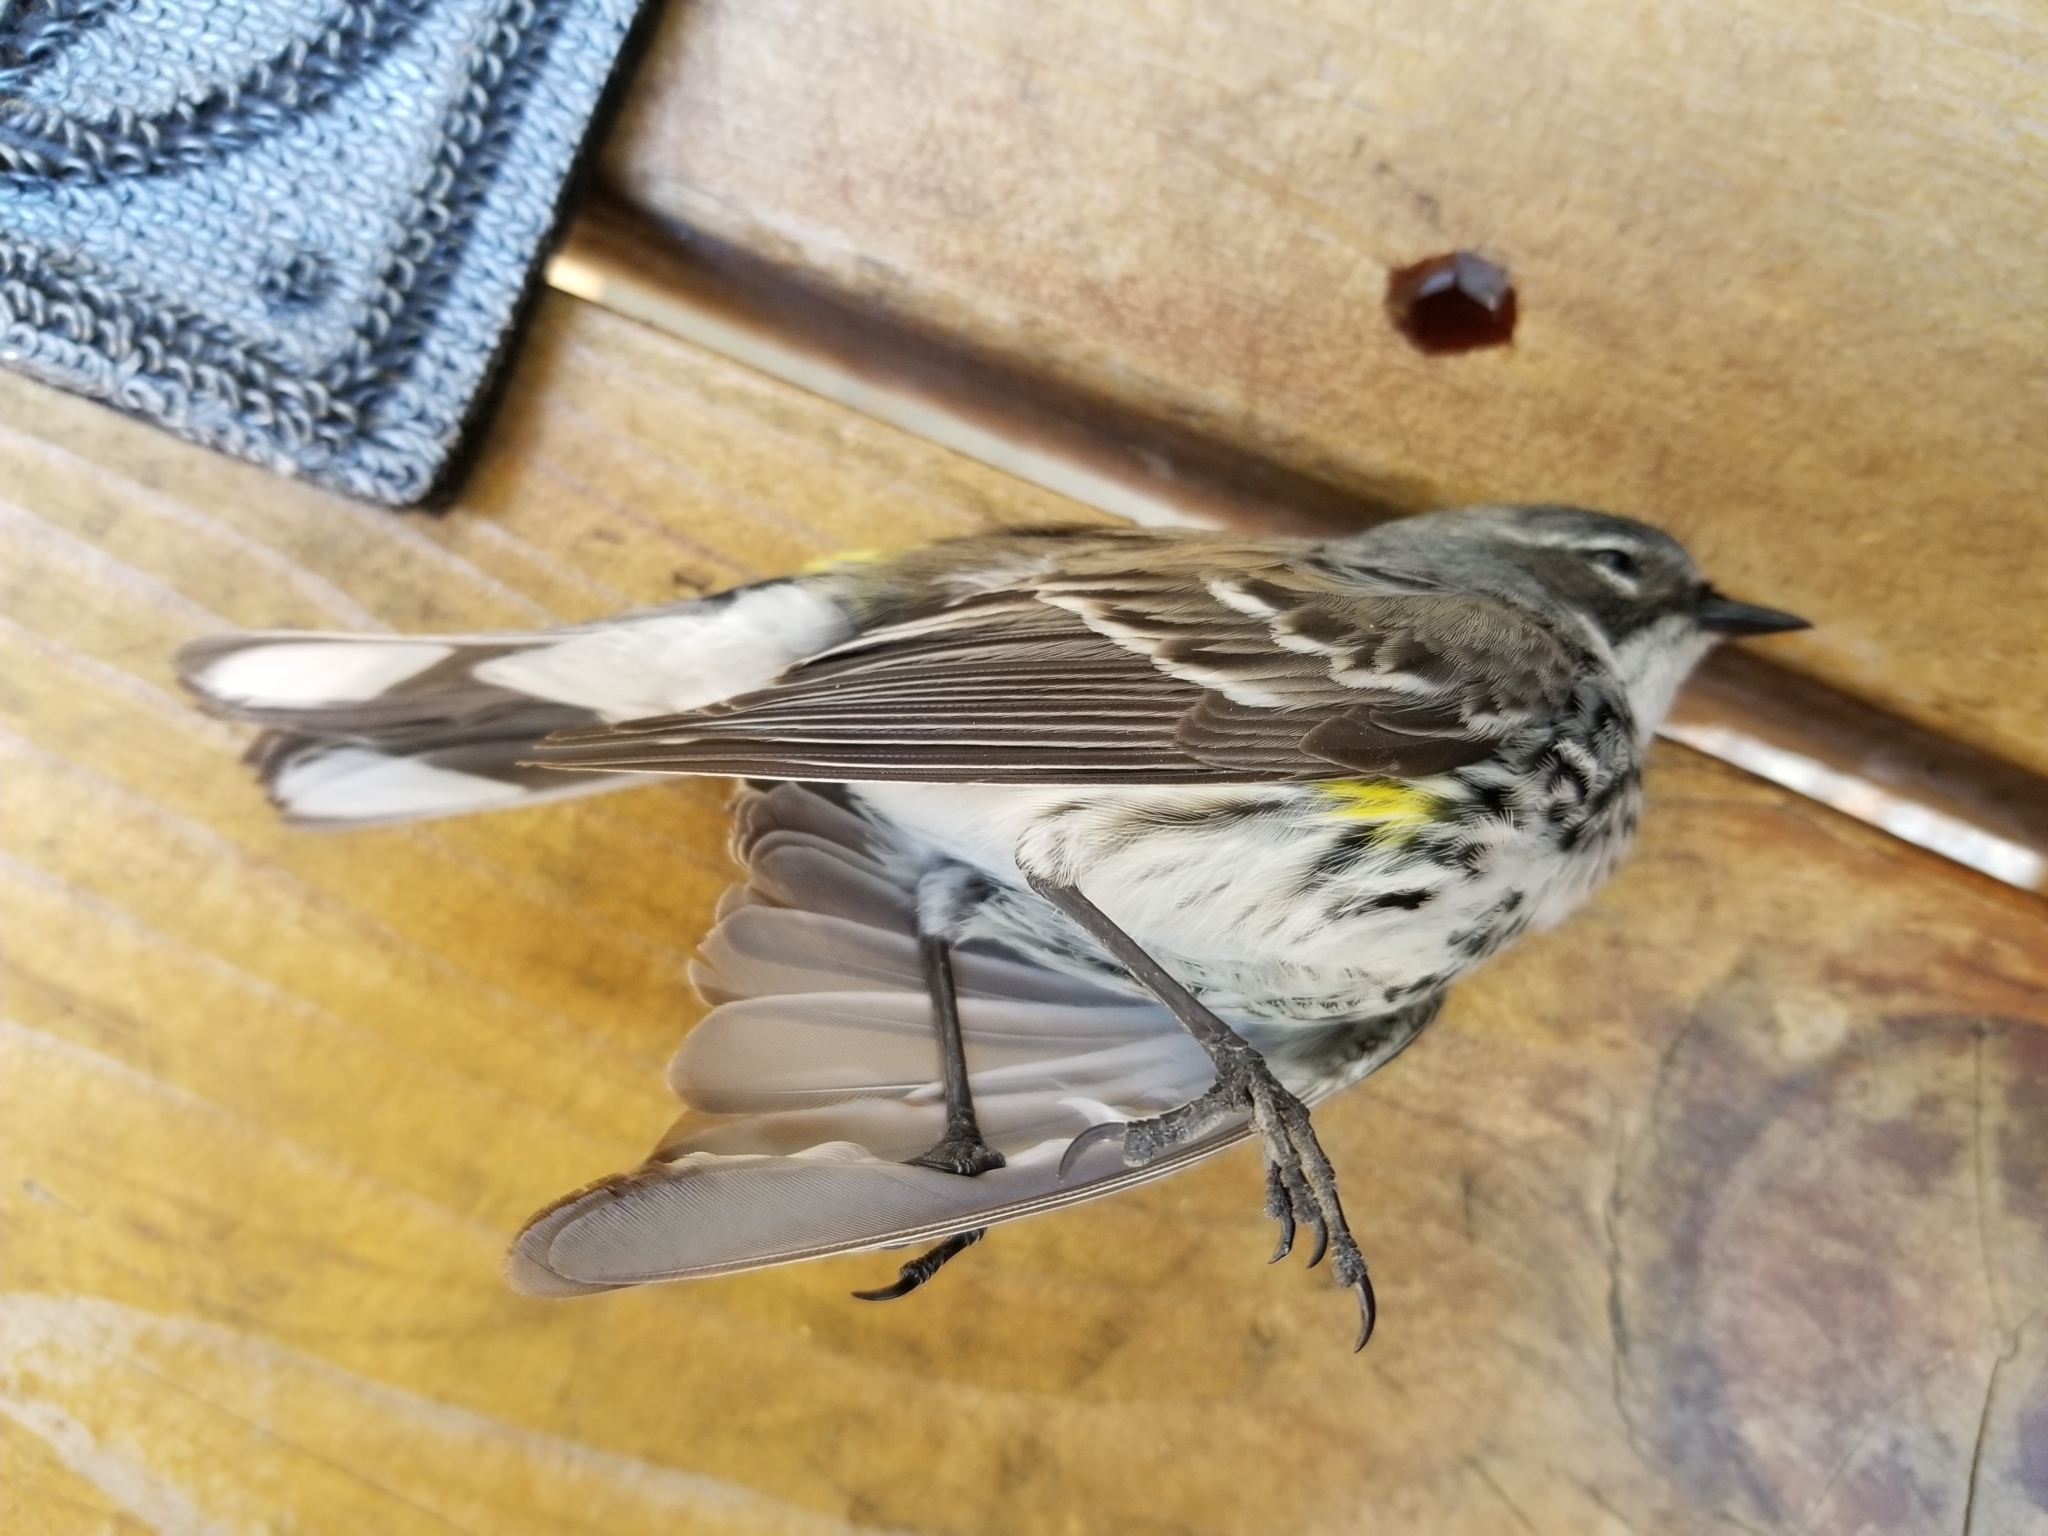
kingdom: Animalia
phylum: Chordata
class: Aves
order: Passeriformes
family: Parulidae
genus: Setophaga
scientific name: Setophaga coronata
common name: Myrtle warbler
